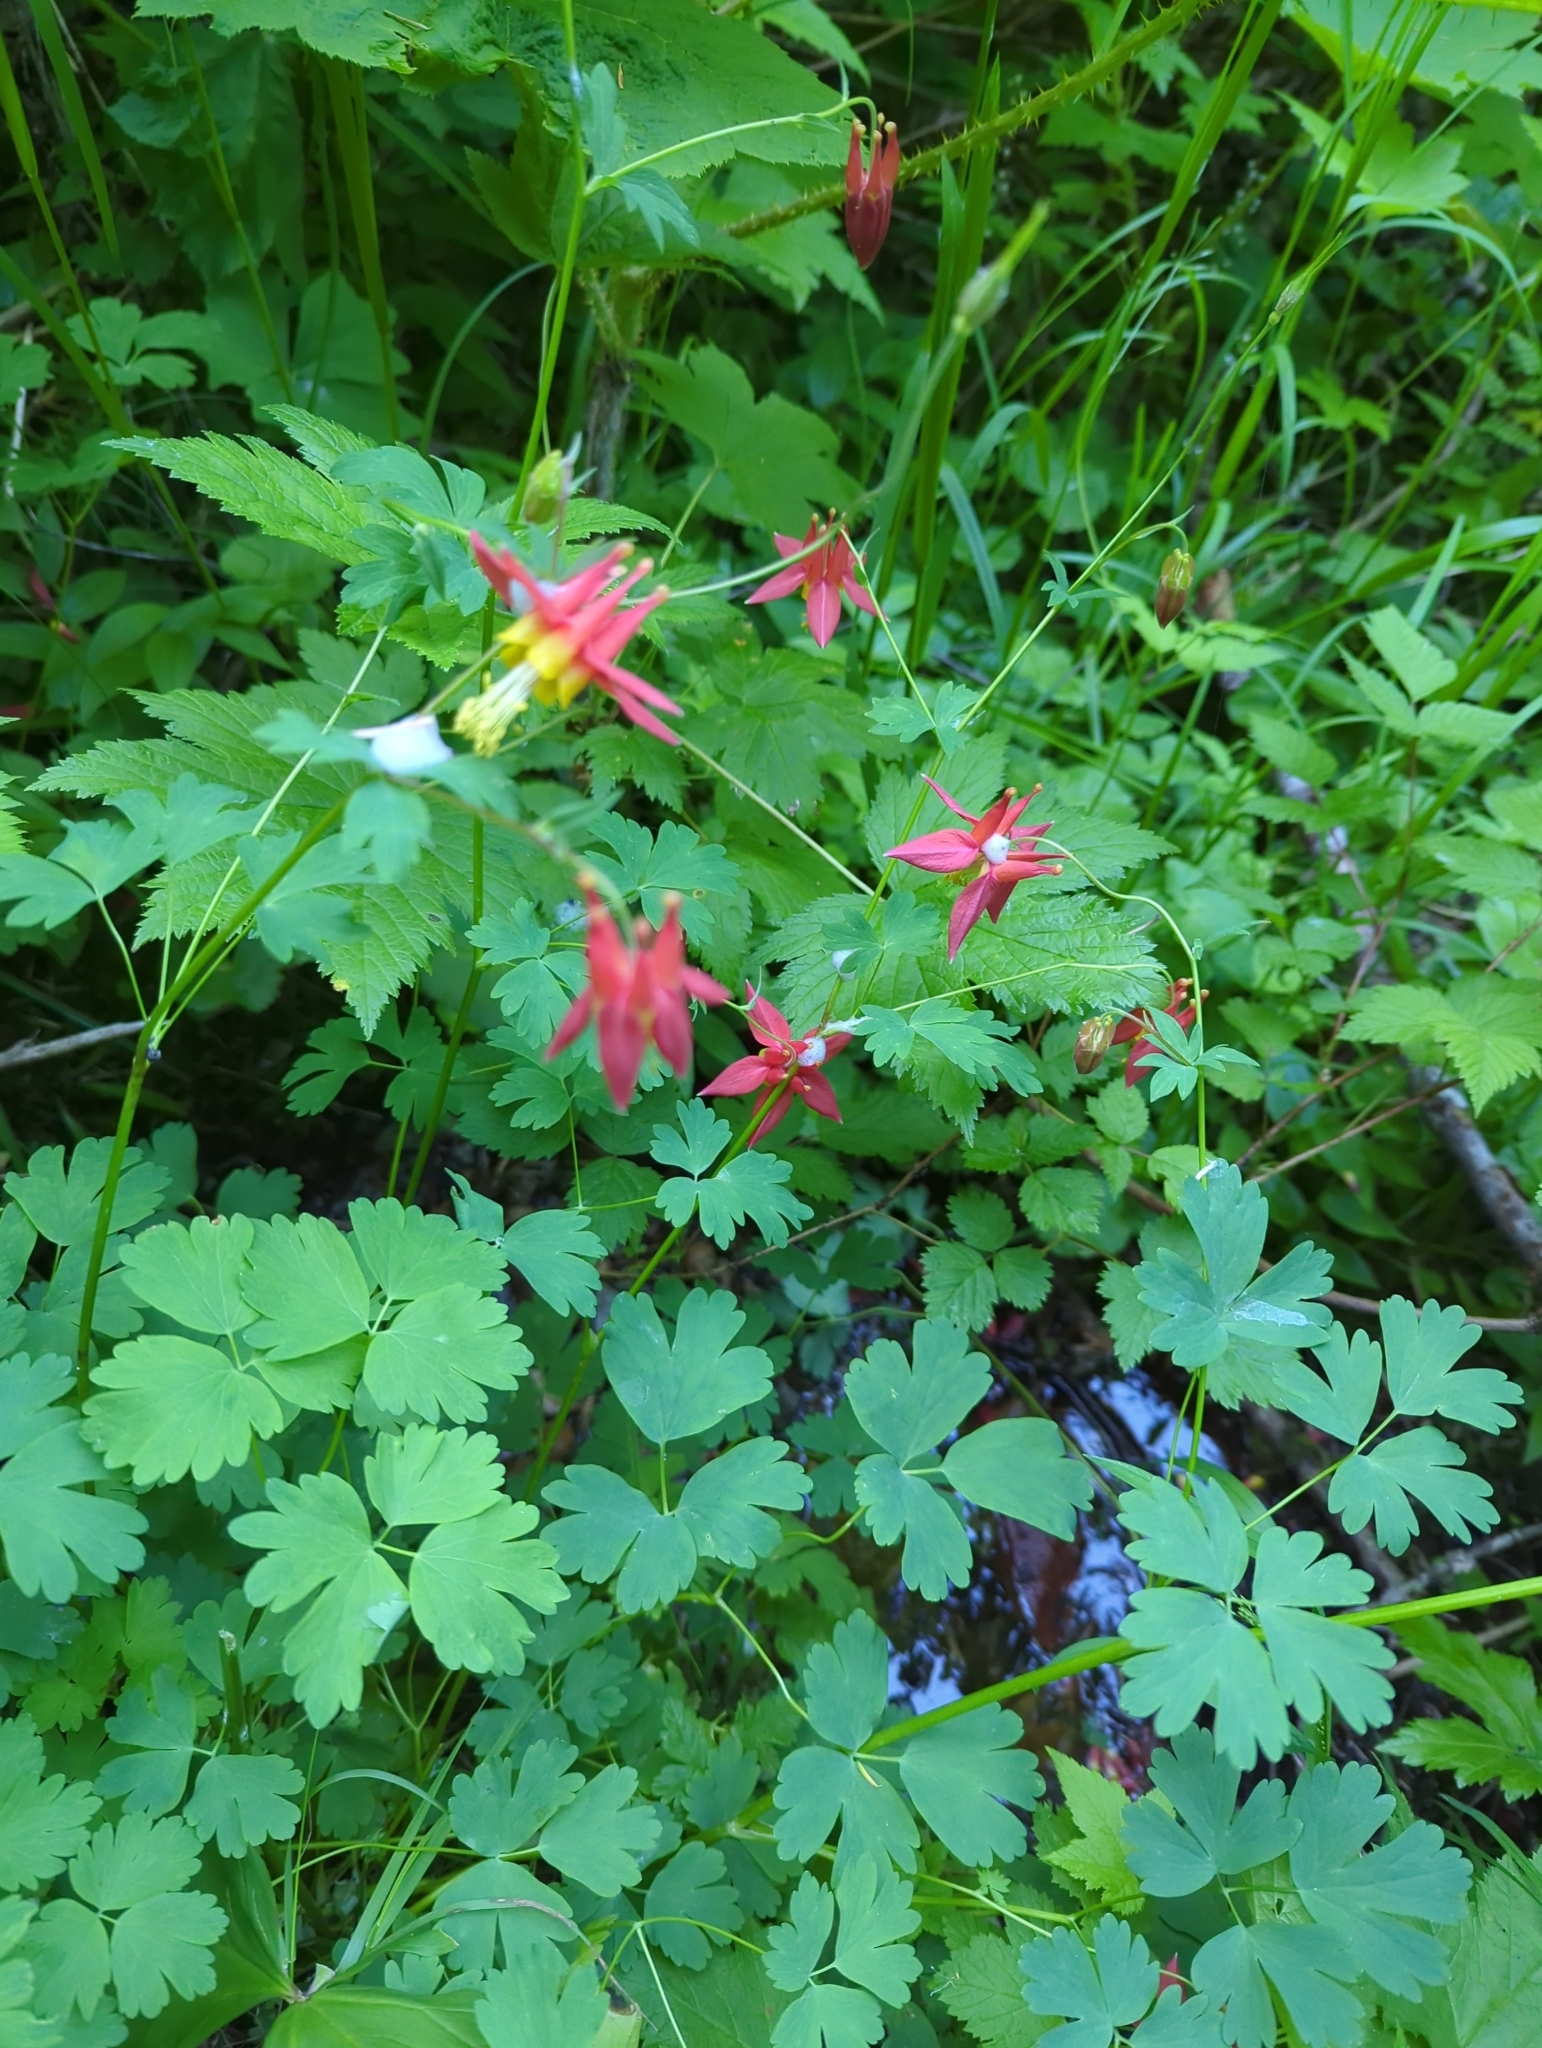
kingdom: Plantae
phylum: Tracheophyta
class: Magnoliopsida
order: Ranunculales
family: Ranunculaceae
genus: Aquilegia
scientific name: Aquilegia formosa
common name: Sitka columbine
